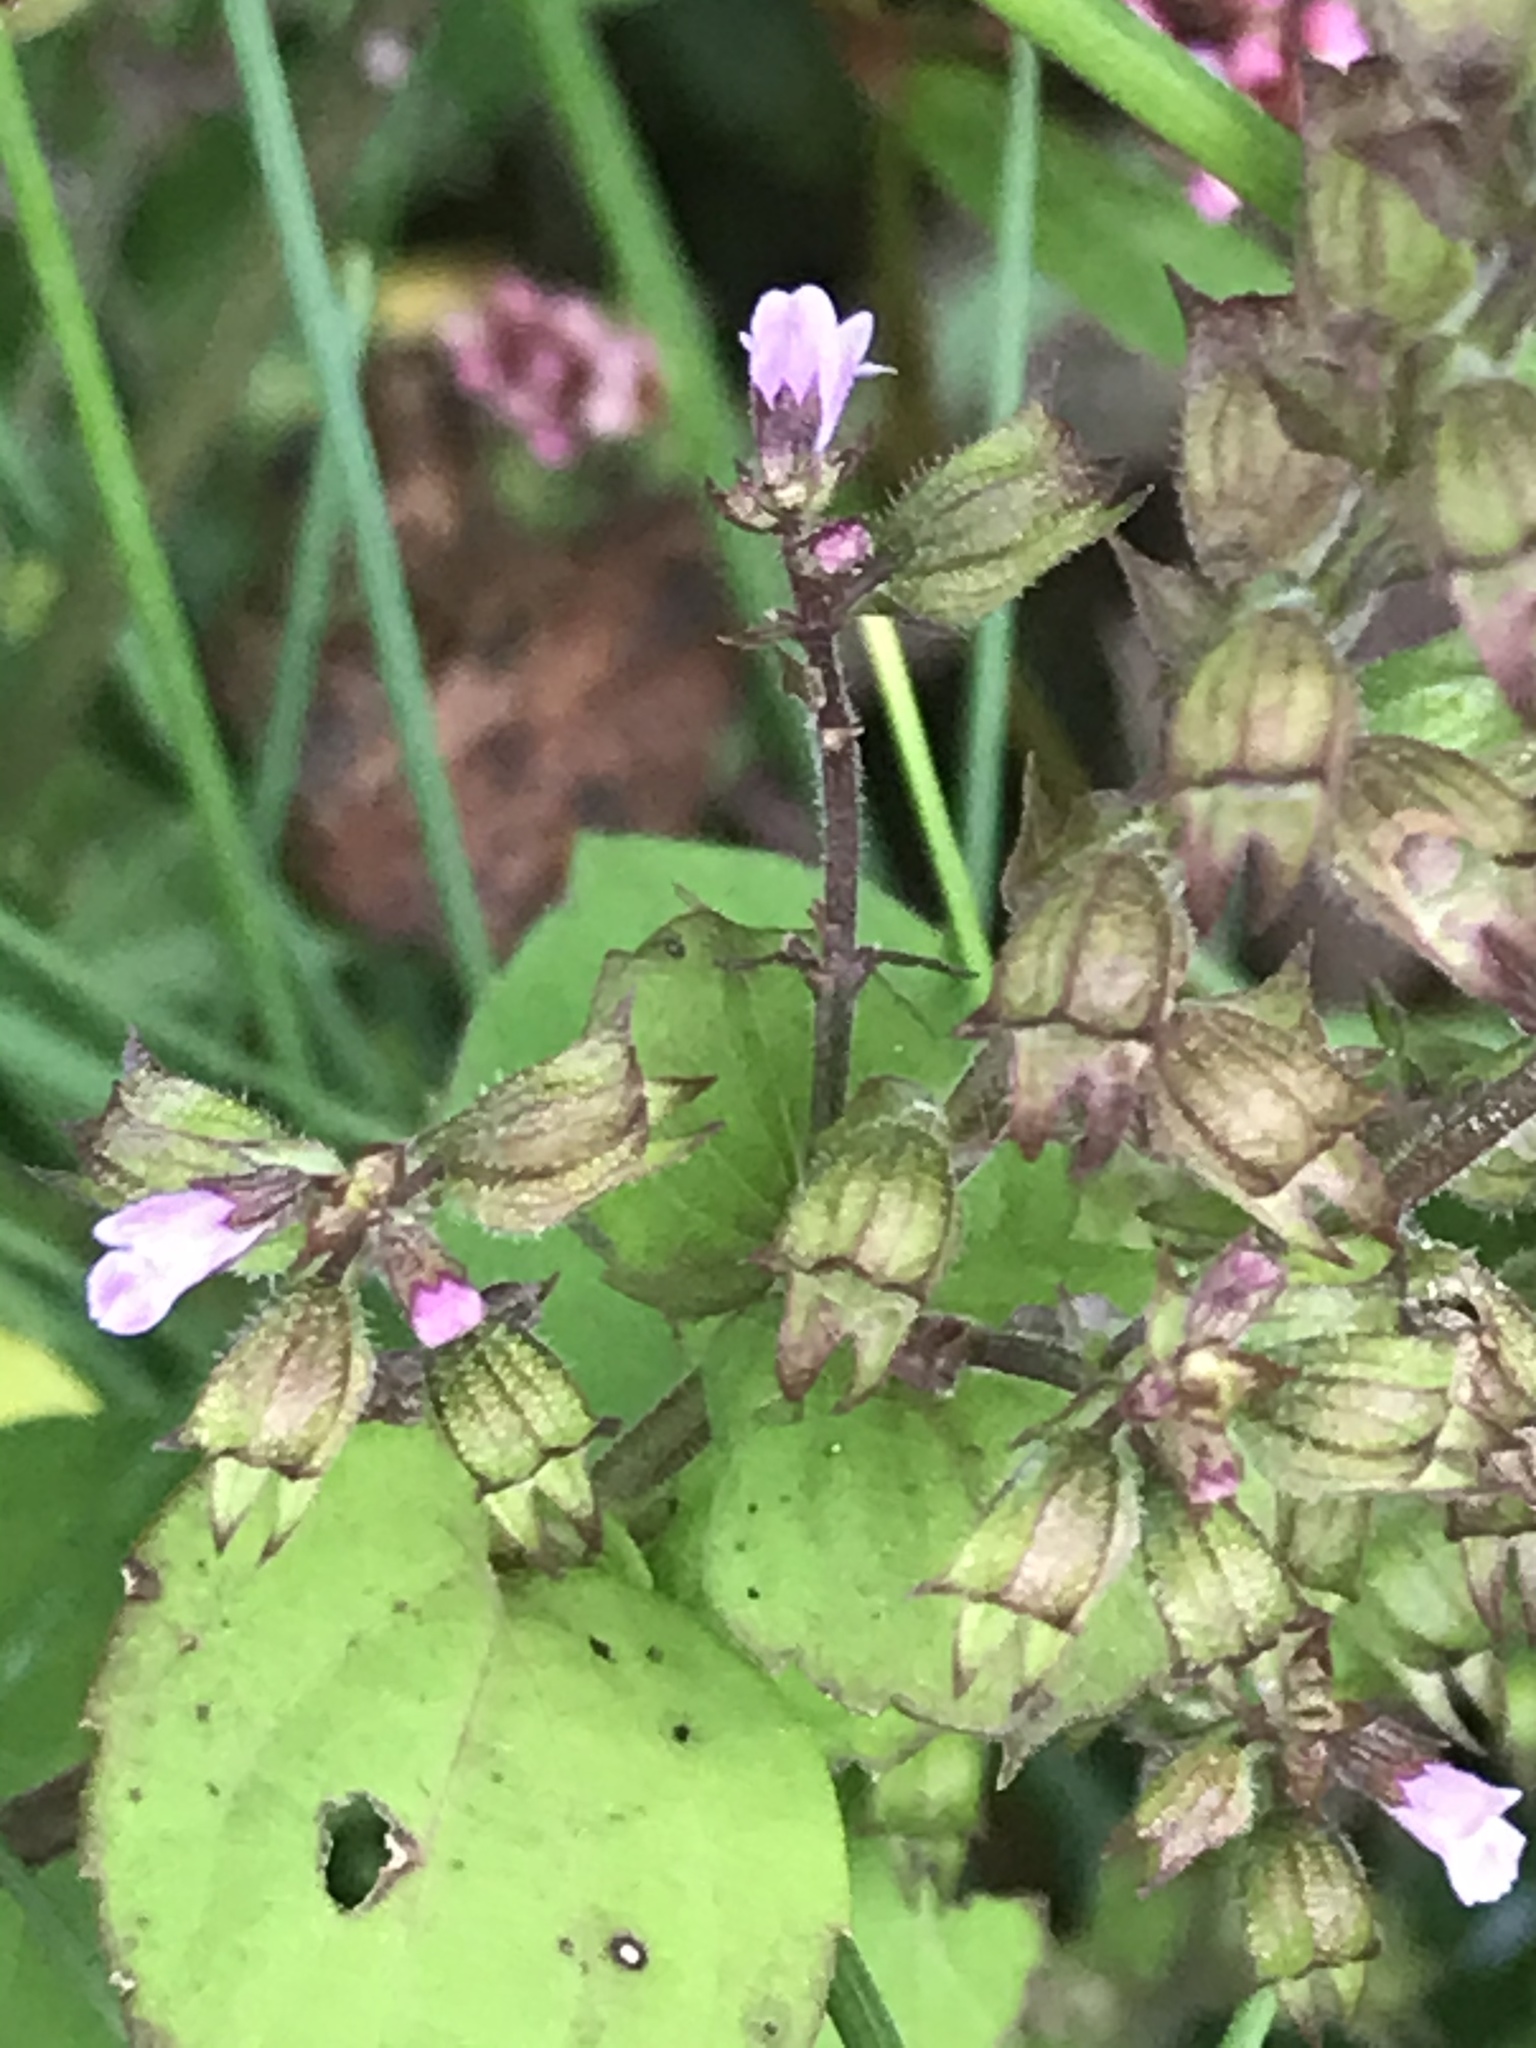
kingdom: Plantae
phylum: Tracheophyta
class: Magnoliopsida
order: Lamiales
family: Lamiaceae
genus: Mosla
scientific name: Mosla dianthera
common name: Miniature beefsteakplant
